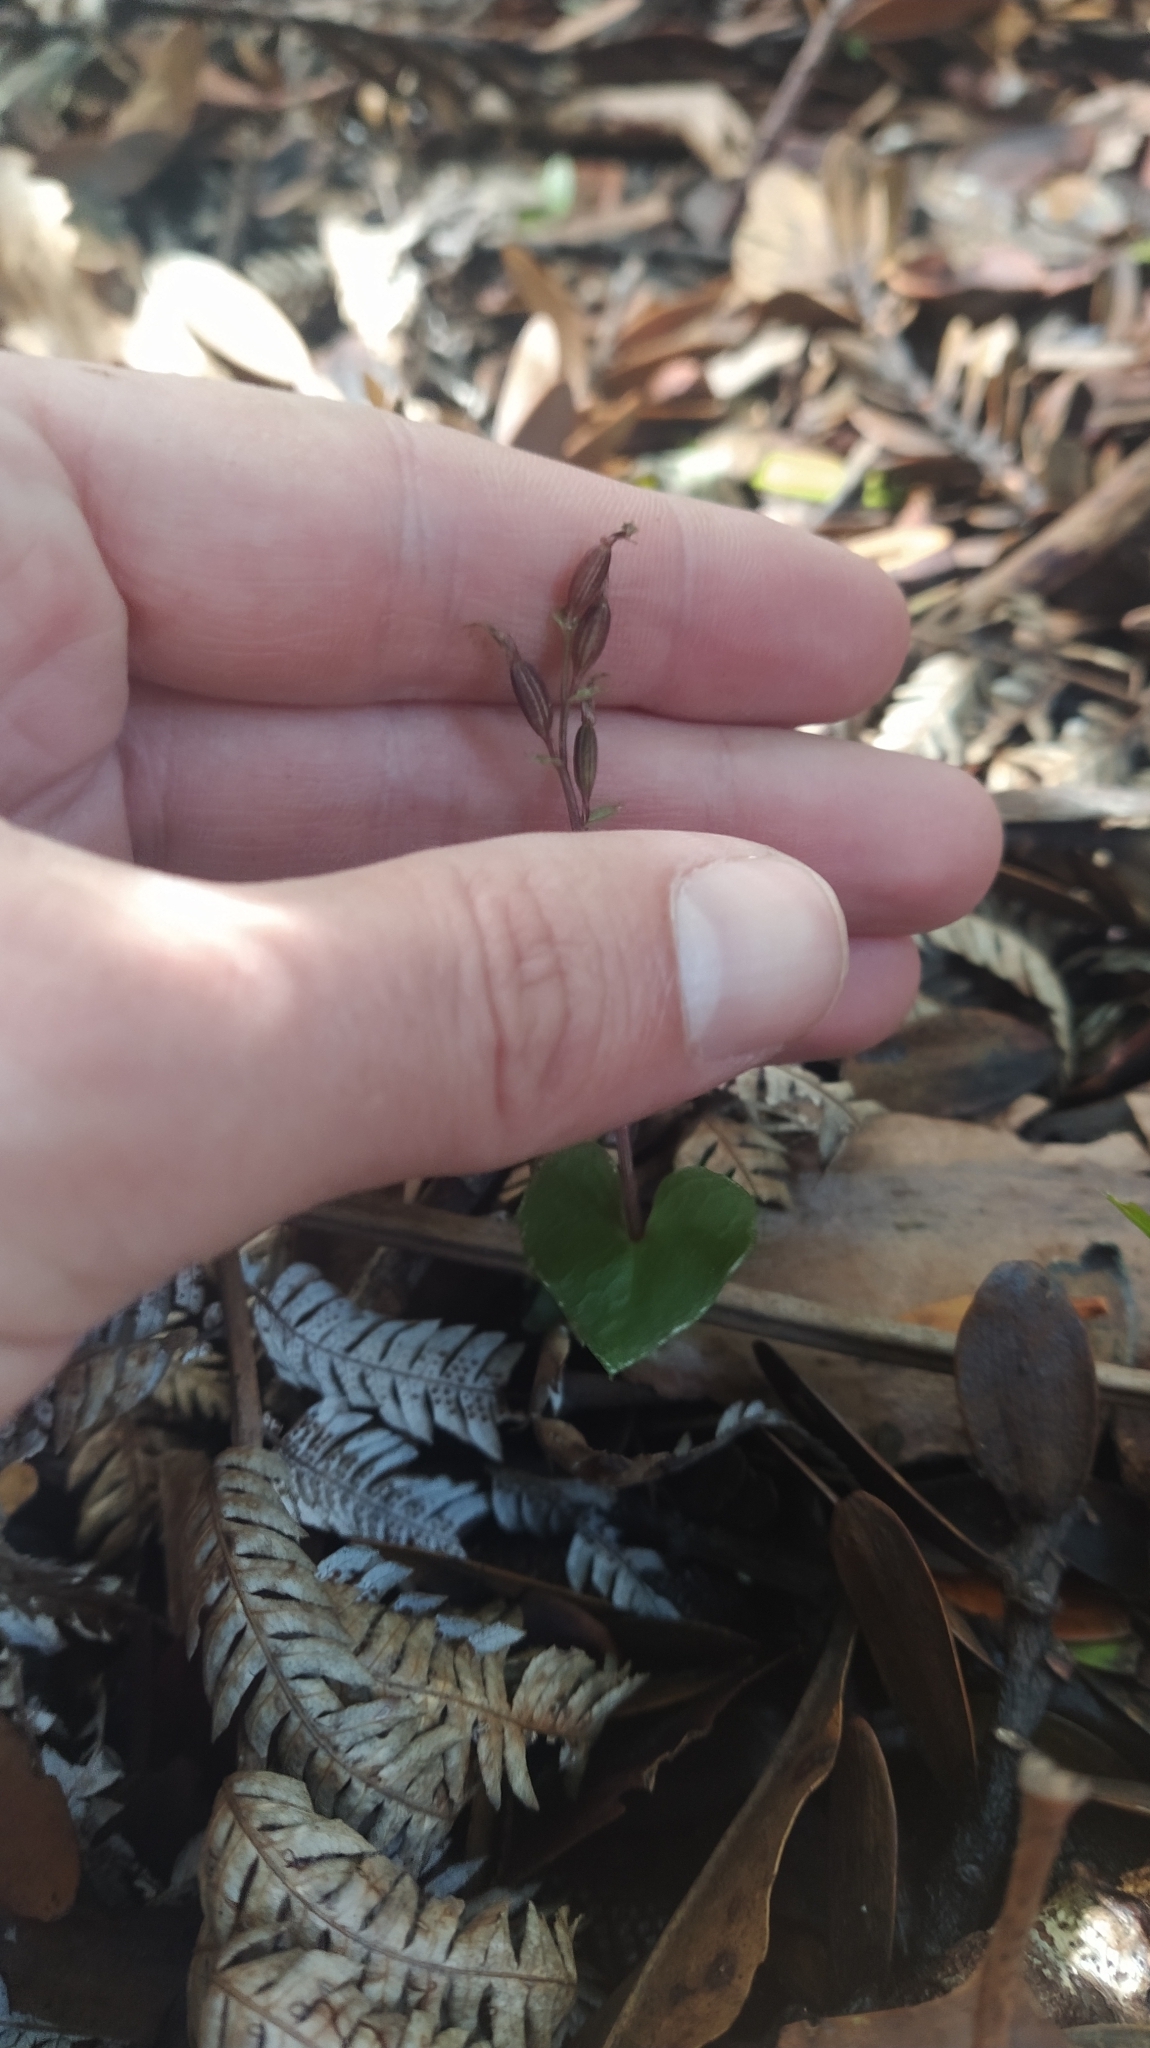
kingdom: Plantae
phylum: Tracheophyta
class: Liliopsida
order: Asparagales
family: Orchidaceae
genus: Acianthus
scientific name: Acianthus sinclairii
